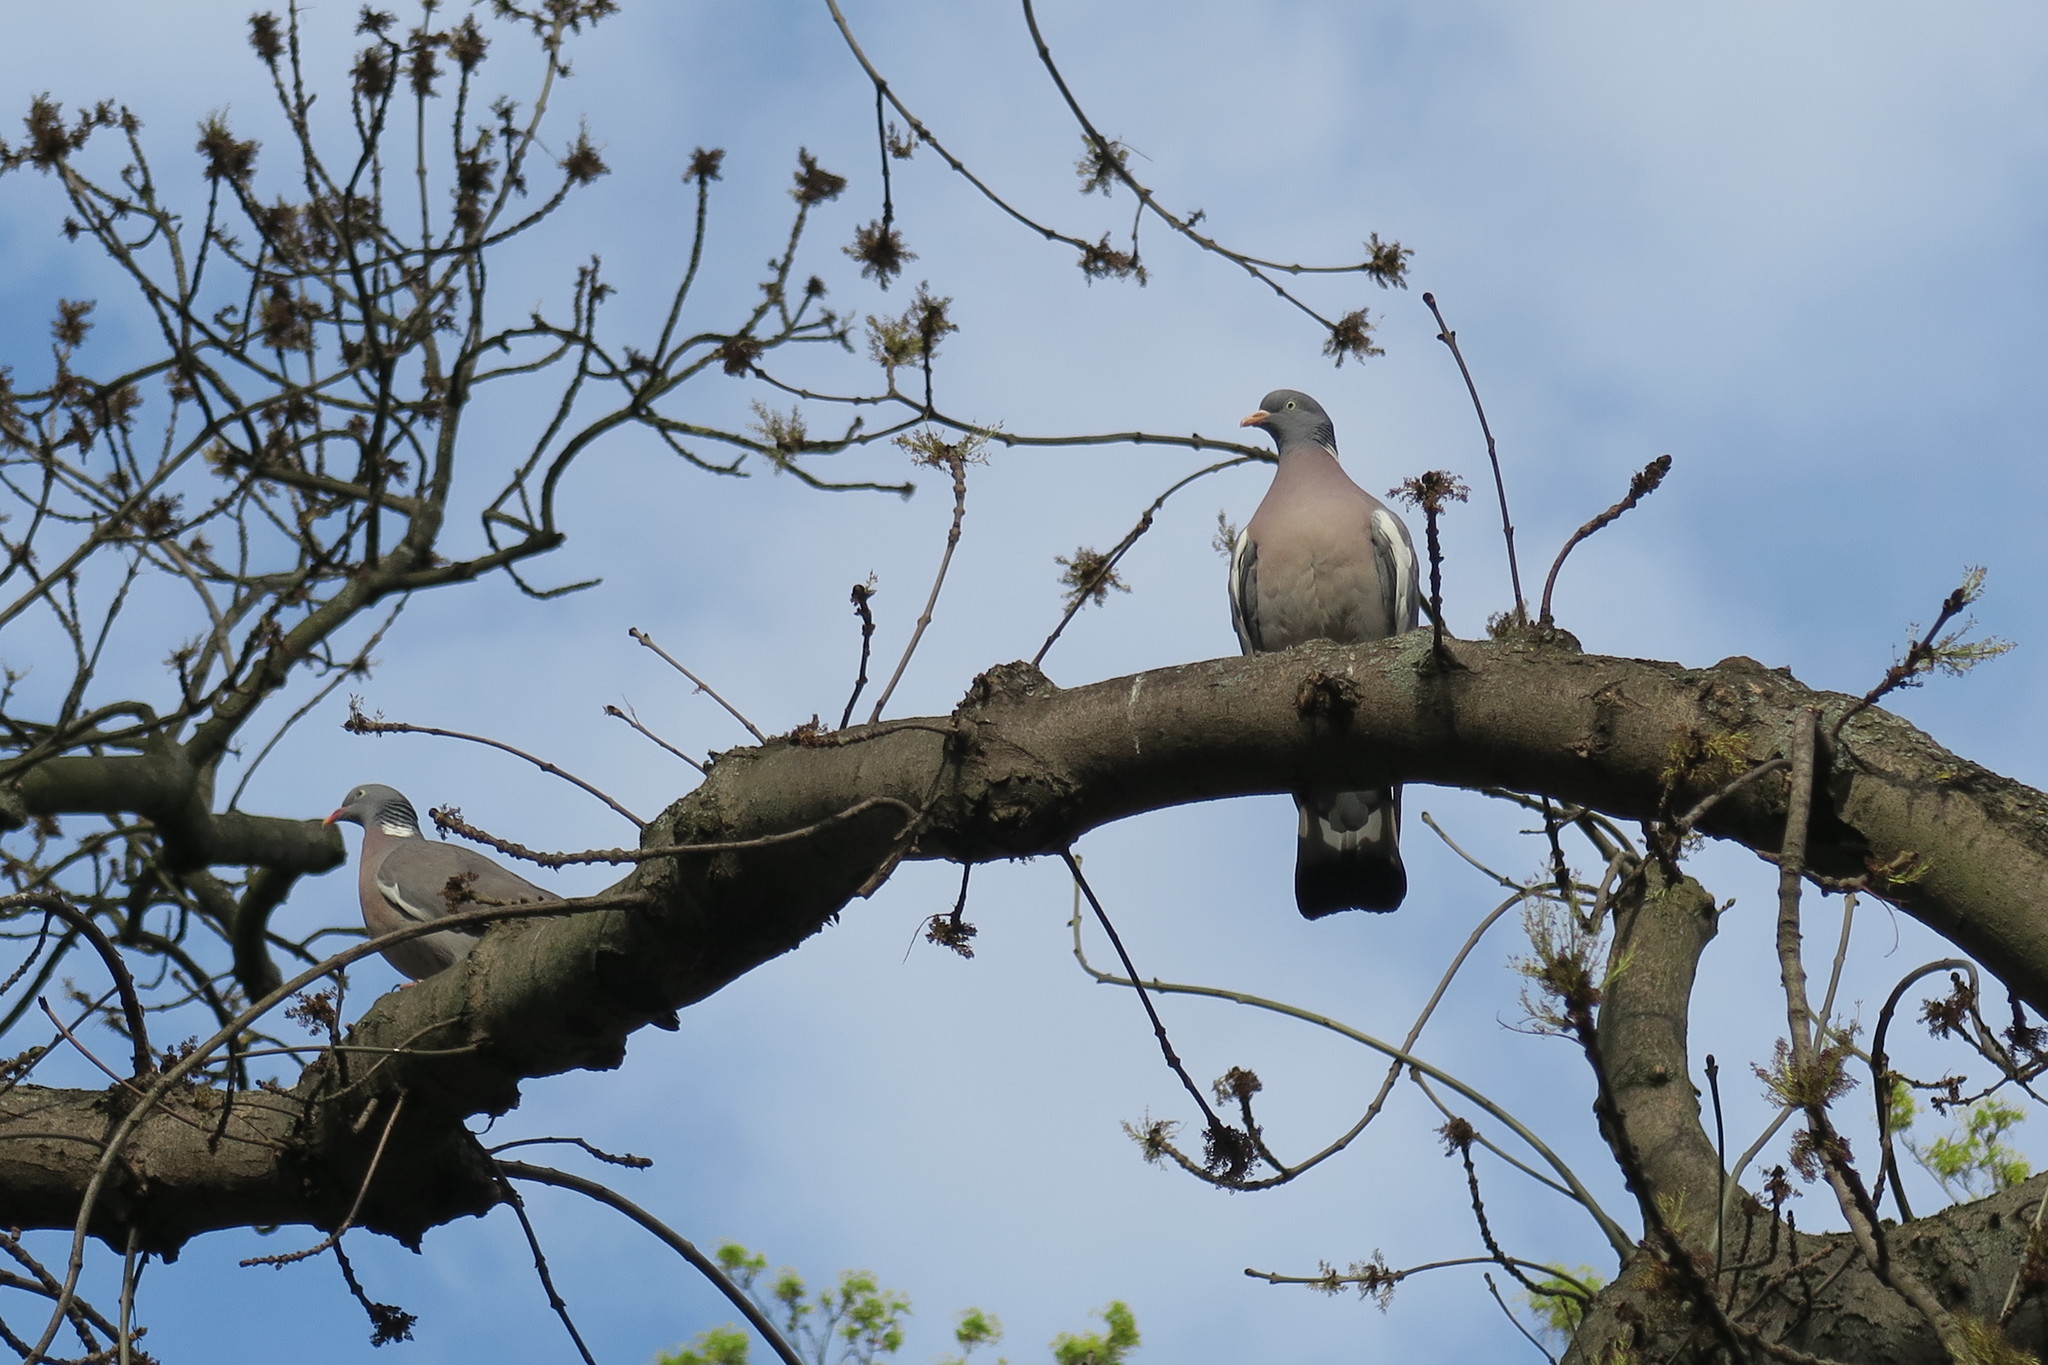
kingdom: Animalia
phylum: Chordata
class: Aves
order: Columbiformes
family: Columbidae
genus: Columba
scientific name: Columba palumbus
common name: Common wood pigeon
